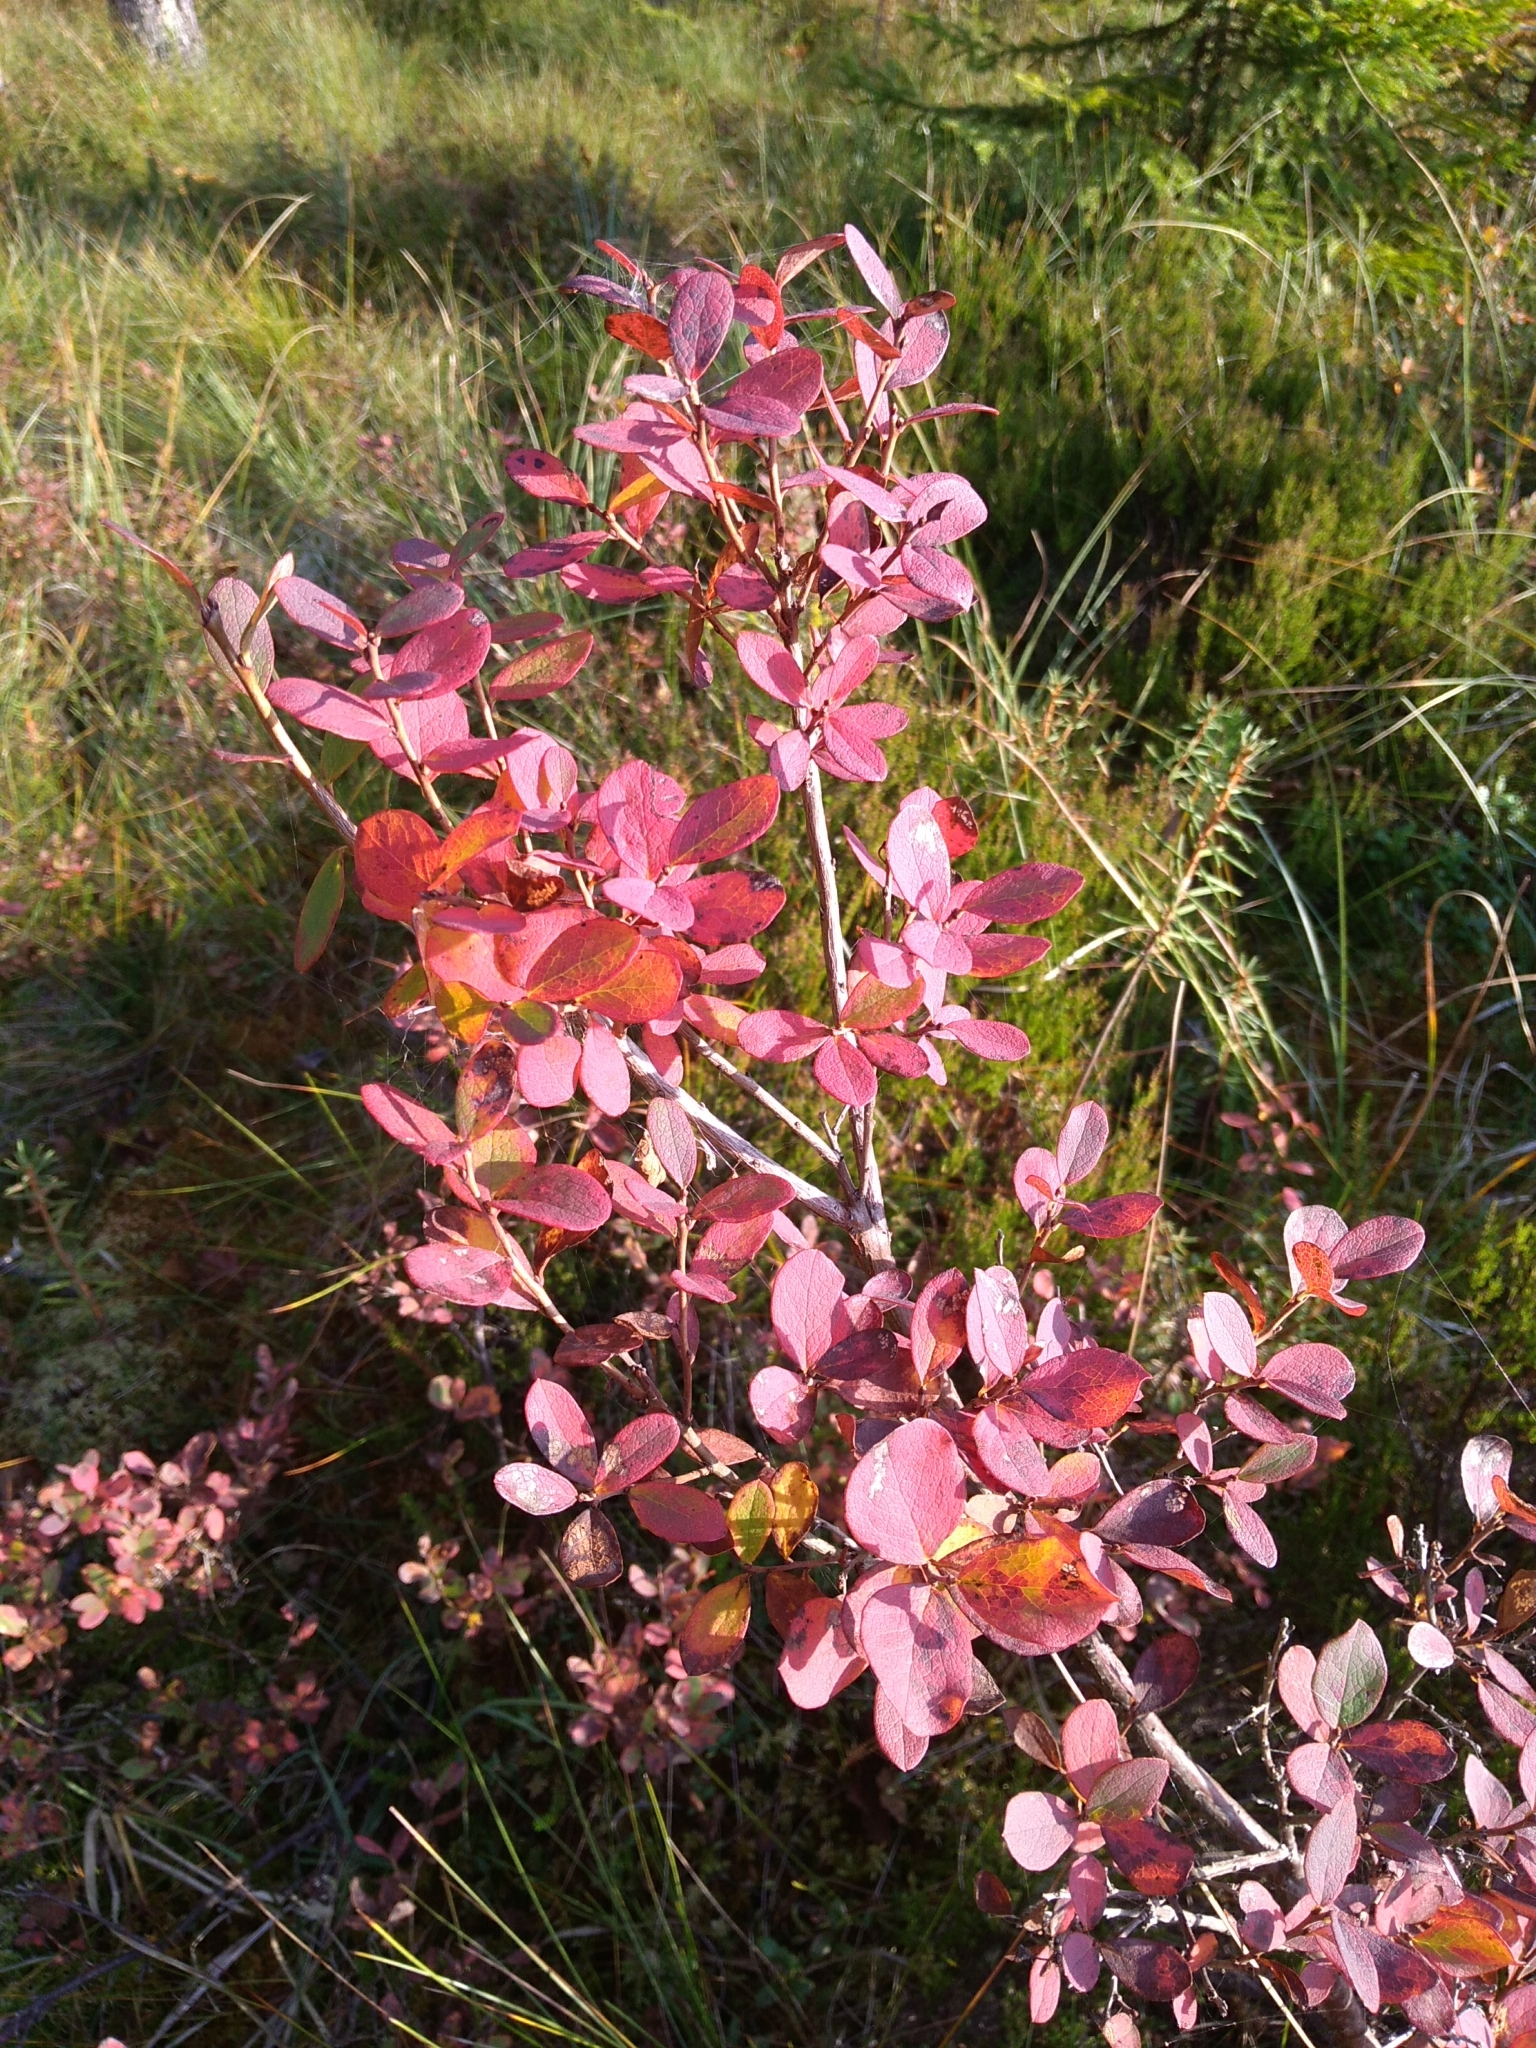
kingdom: Plantae
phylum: Tracheophyta
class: Magnoliopsida
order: Ericales
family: Ericaceae
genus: Vaccinium
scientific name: Vaccinium uliginosum
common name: Bog bilberry
